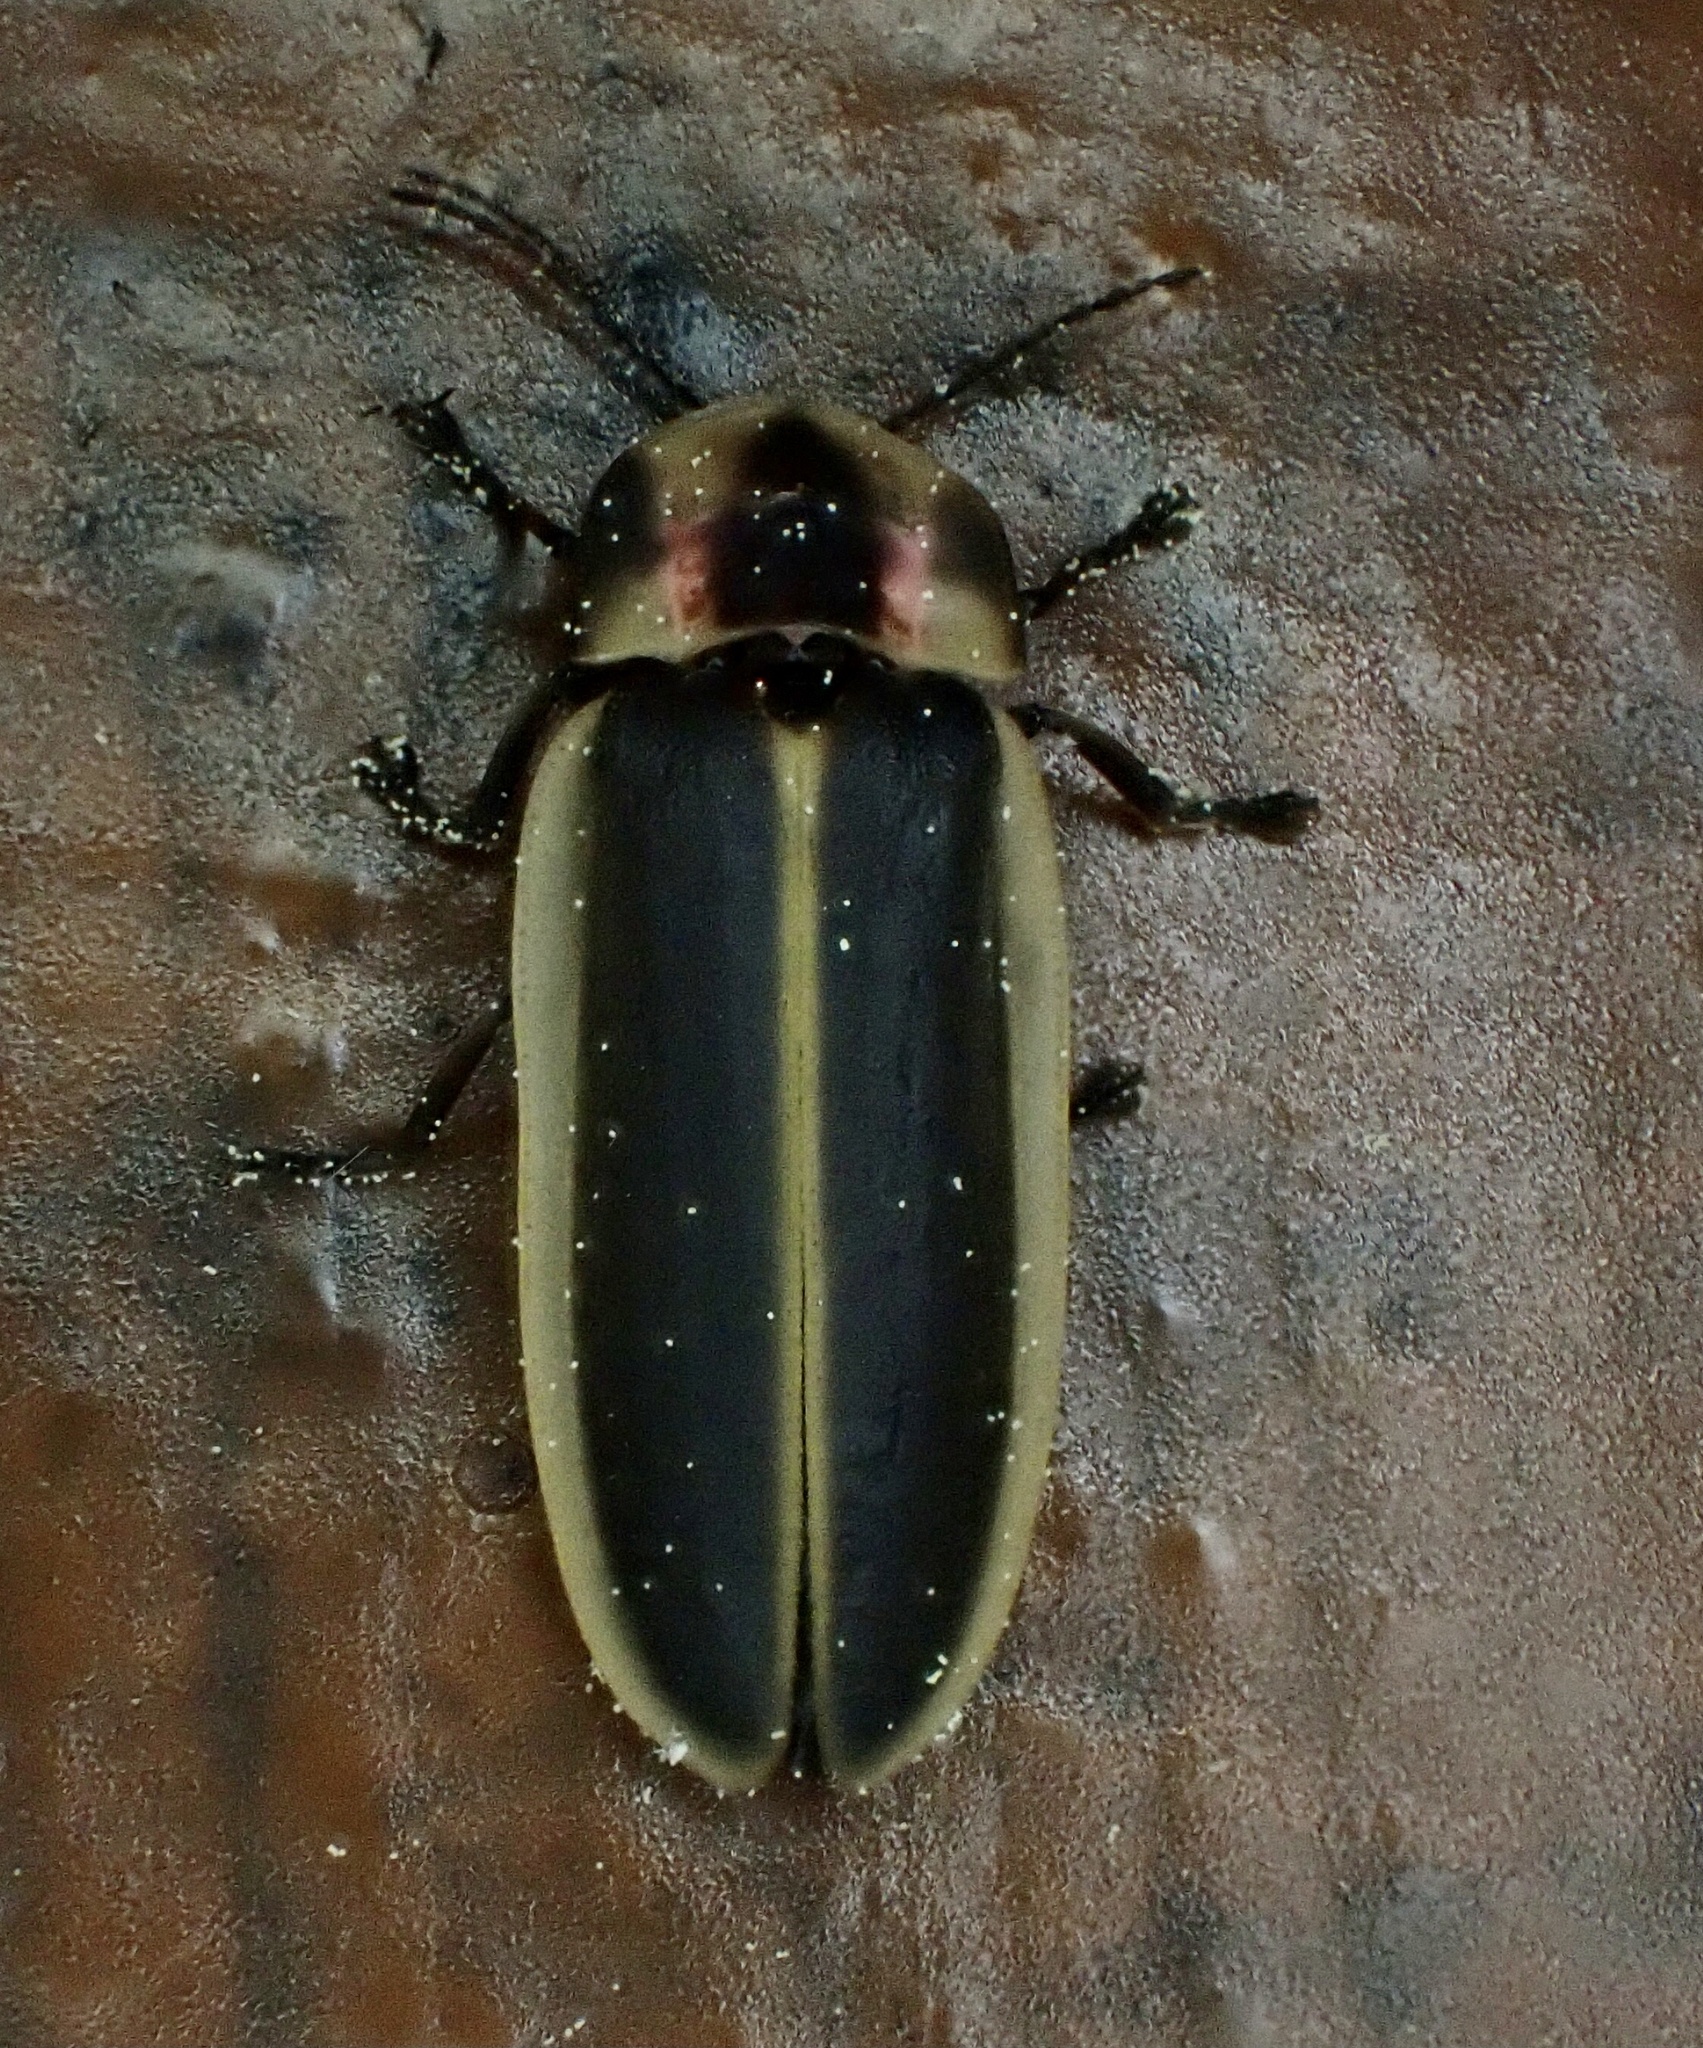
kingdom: Animalia
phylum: Arthropoda
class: Insecta
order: Coleoptera
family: Lampyridae
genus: Pyractomena
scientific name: Pyractomena borealis
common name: Northern firefly
